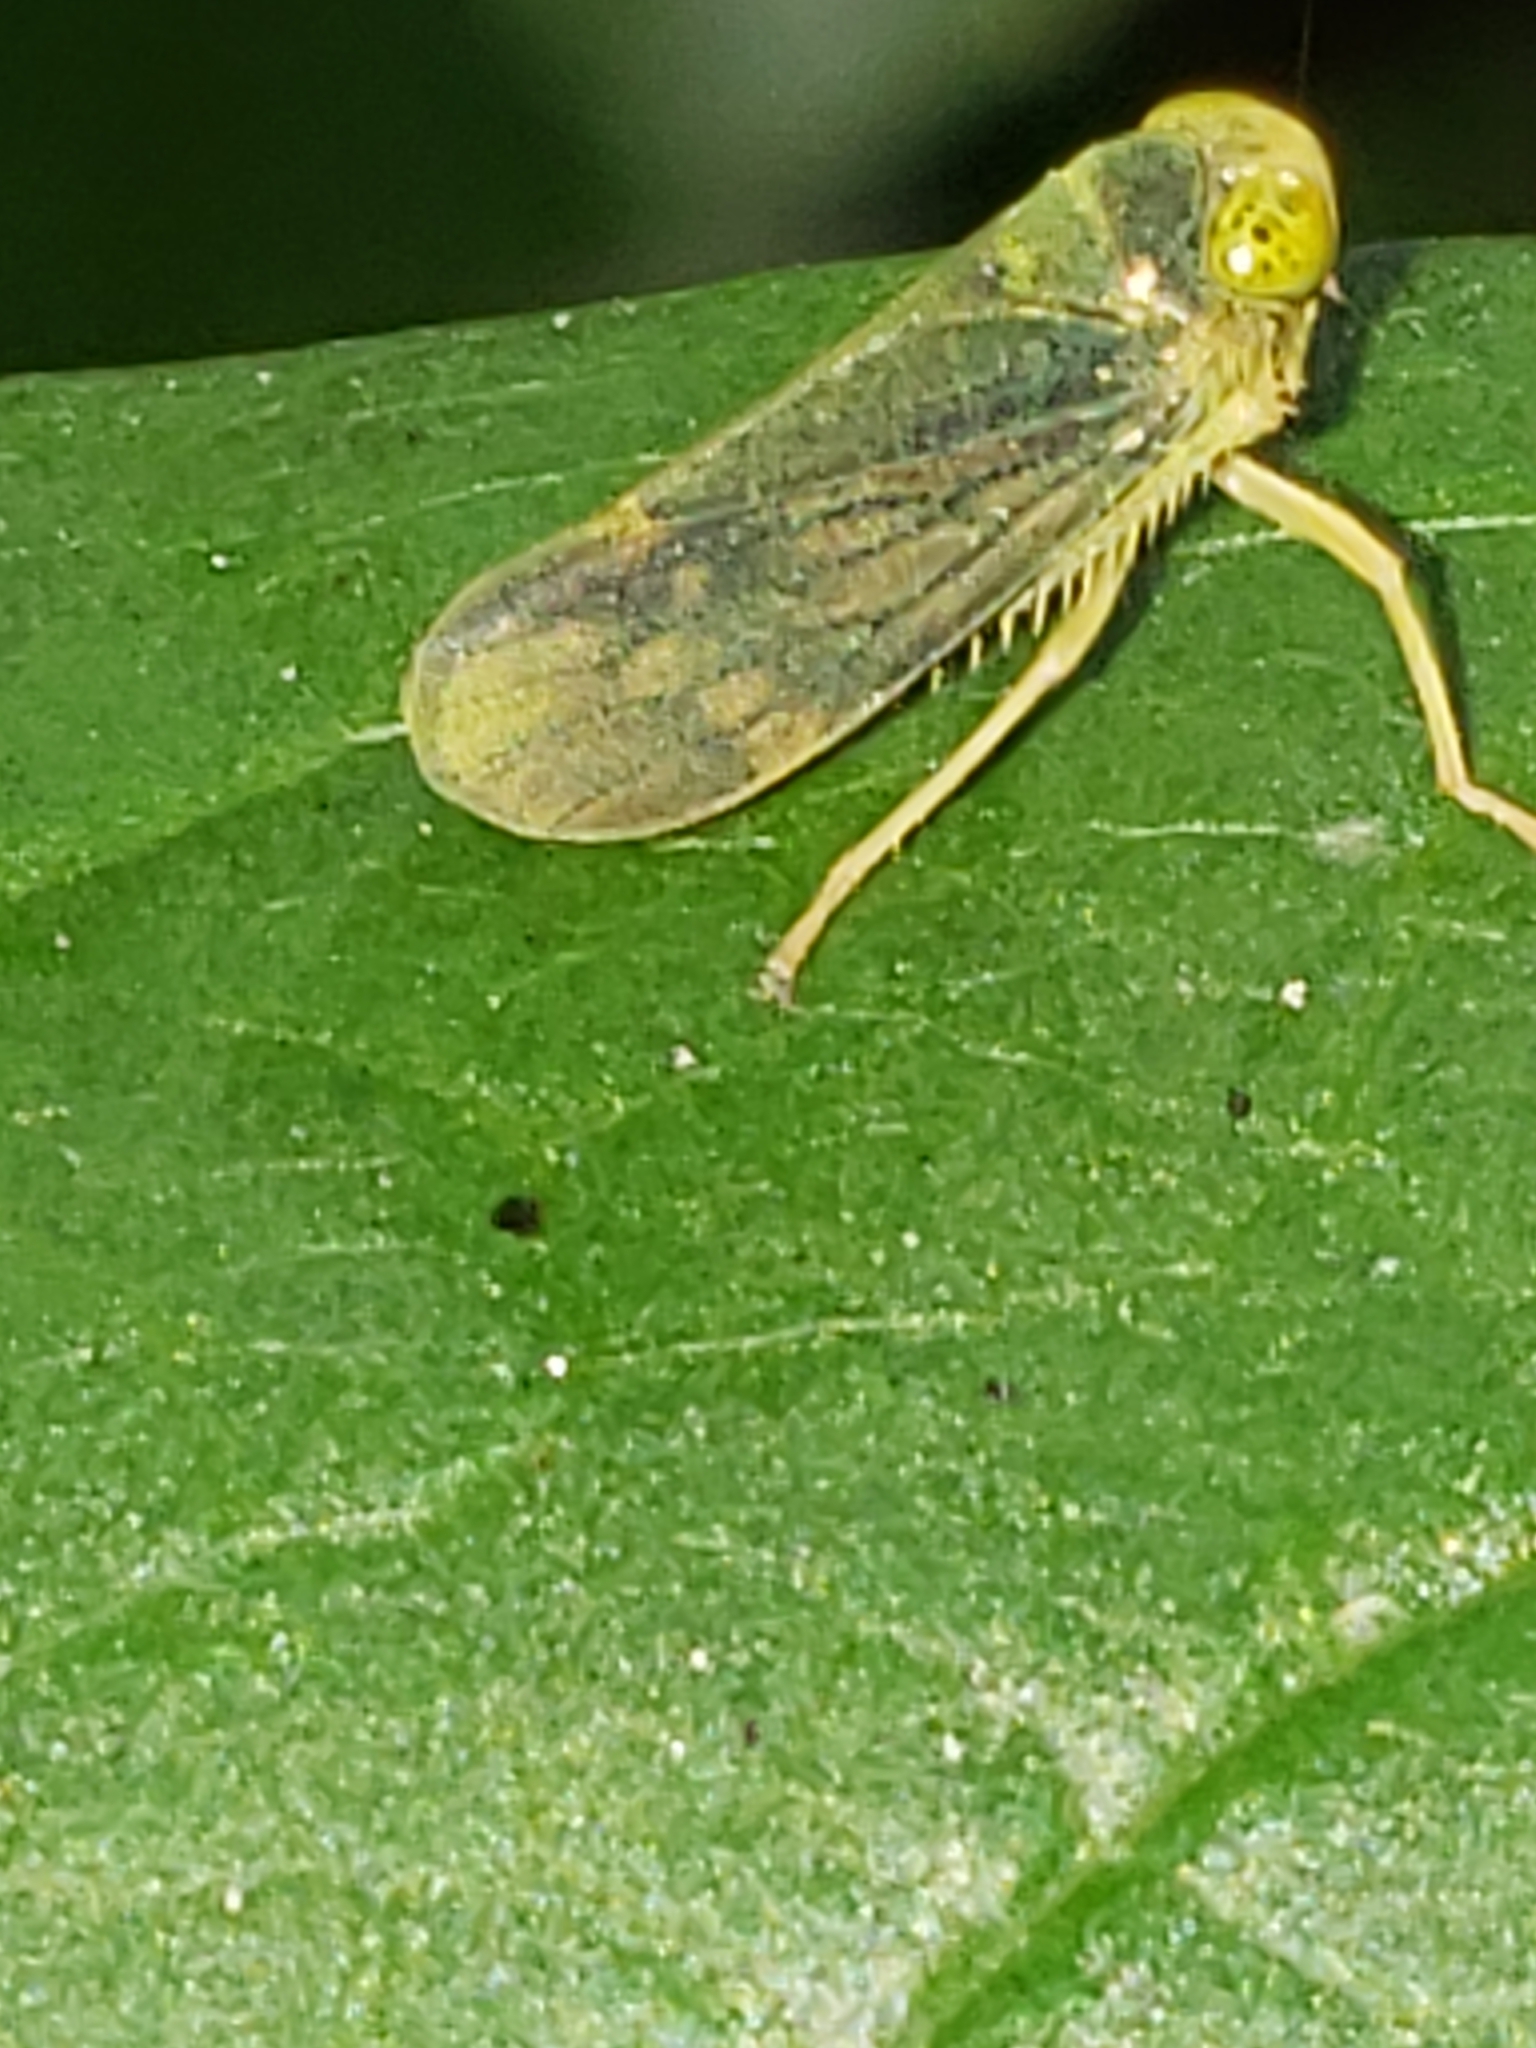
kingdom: Animalia
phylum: Arthropoda
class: Insecta
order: Hemiptera
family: Cicadellidae
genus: Jikradia
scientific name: Jikradia olitoria
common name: Coppery leafhopper
